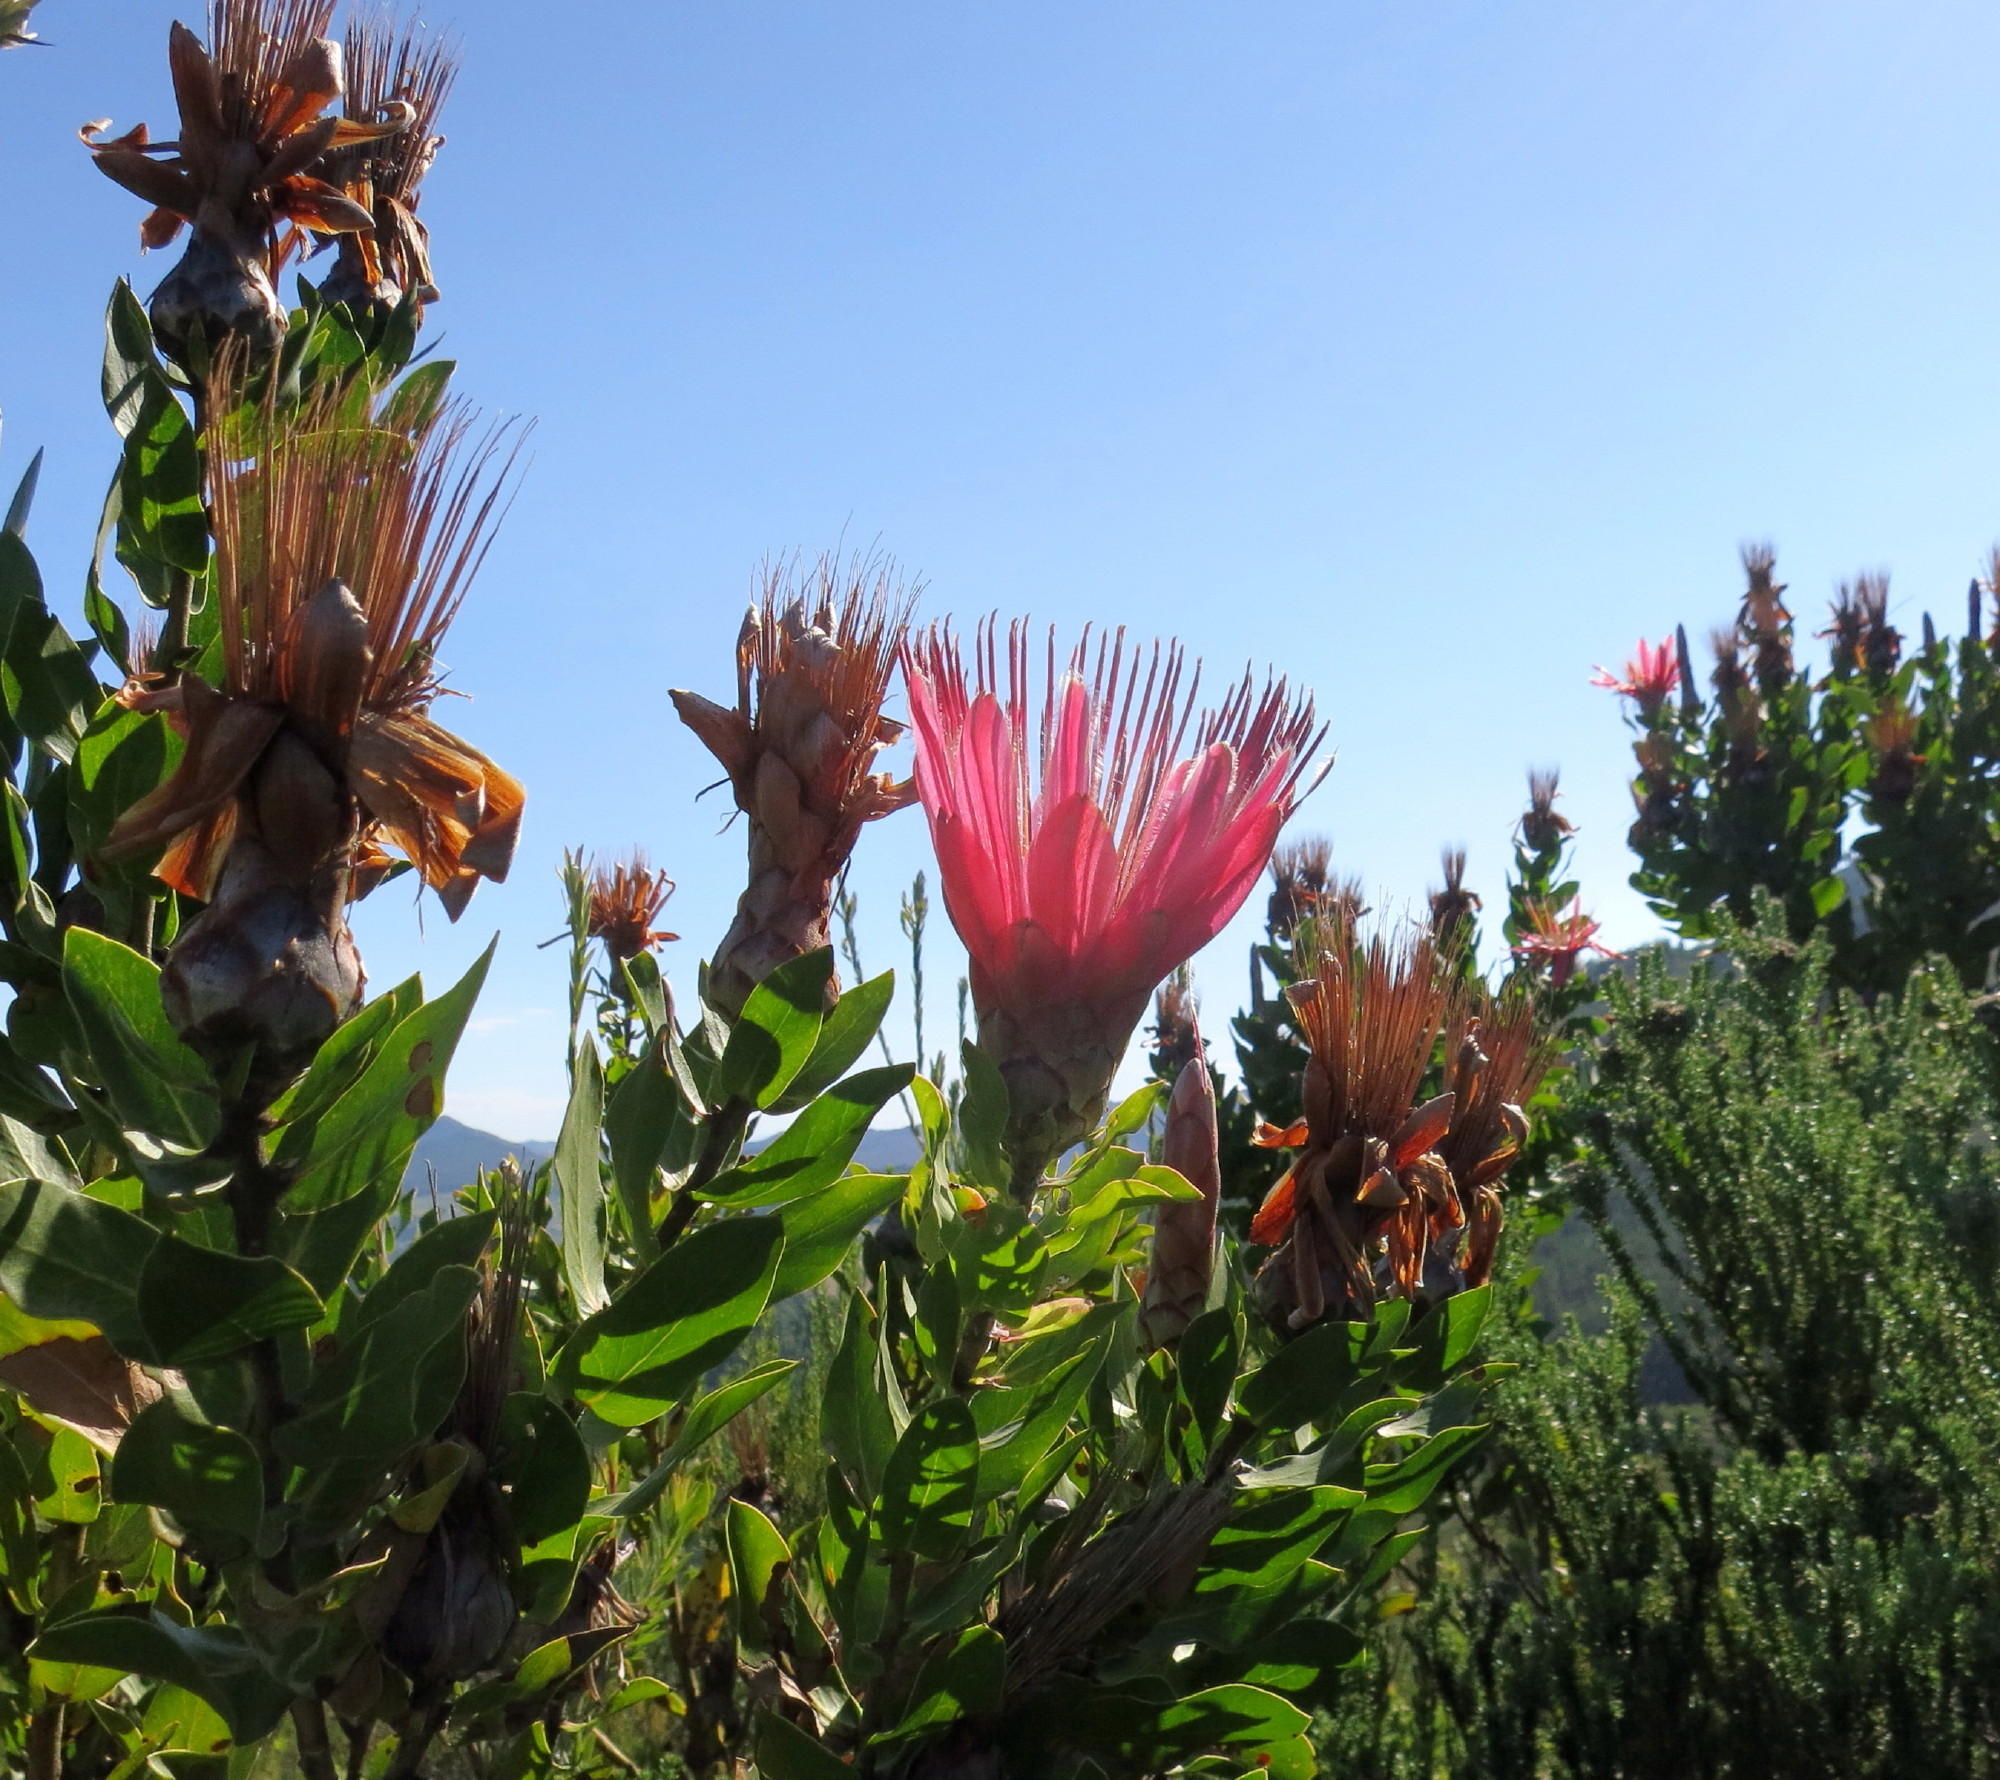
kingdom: Plantae
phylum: Tracheophyta
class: Magnoliopsida
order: Proteales
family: Proteaceae
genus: Protea
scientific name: Protea aurea
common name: Shuttlecock sugarbush
